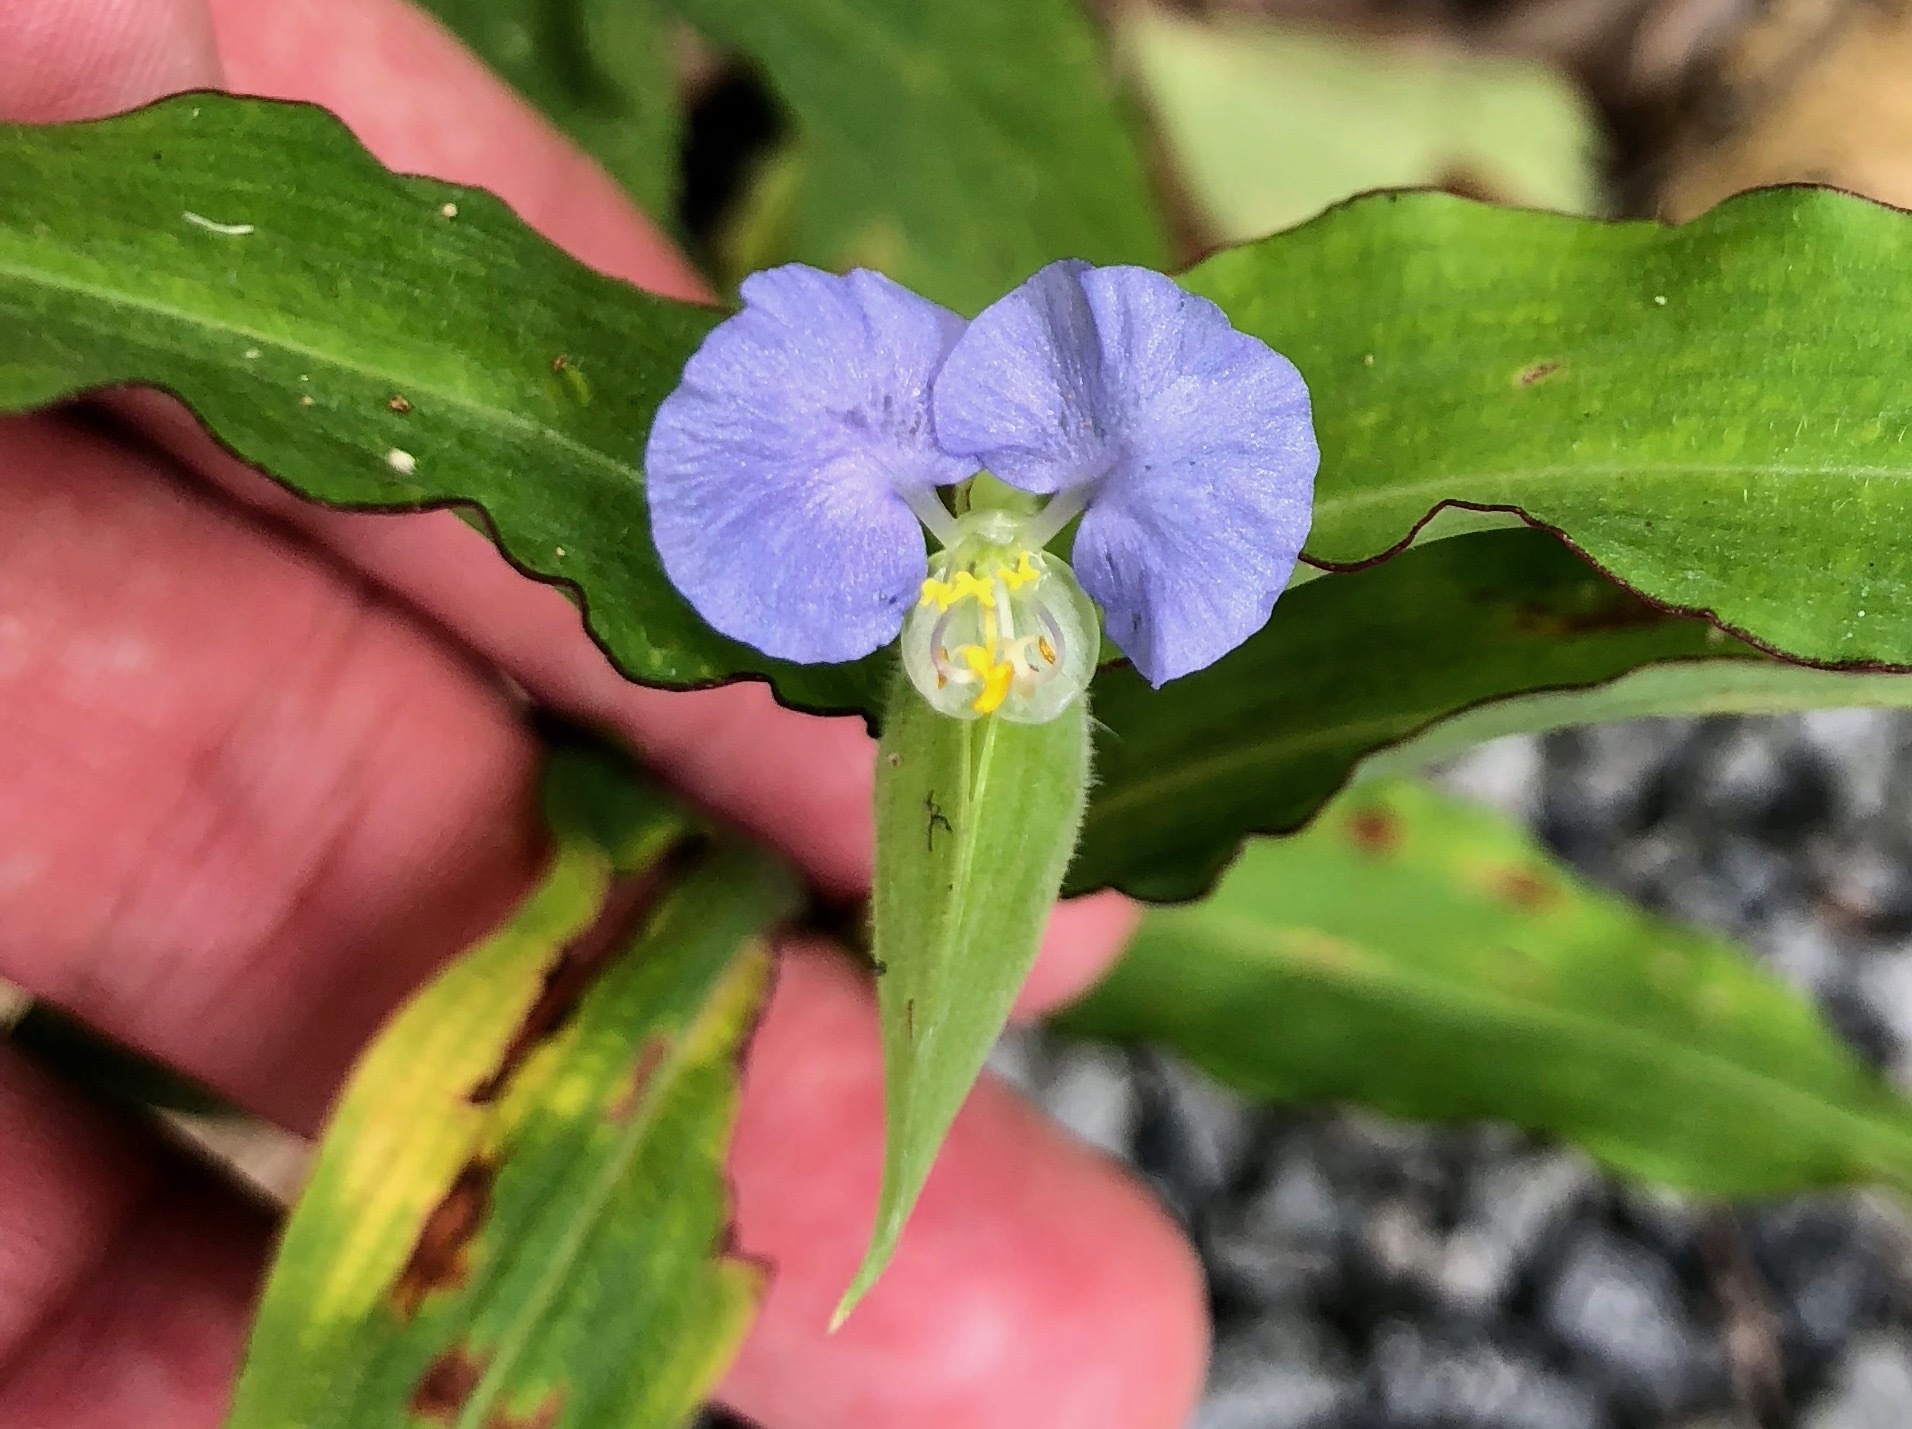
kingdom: Plantae
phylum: Tracheophyta
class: Liliopsida
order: Commelinales
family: Commelinaceae
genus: Commelina
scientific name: Commelina erecta
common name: Blousel blommetjie
